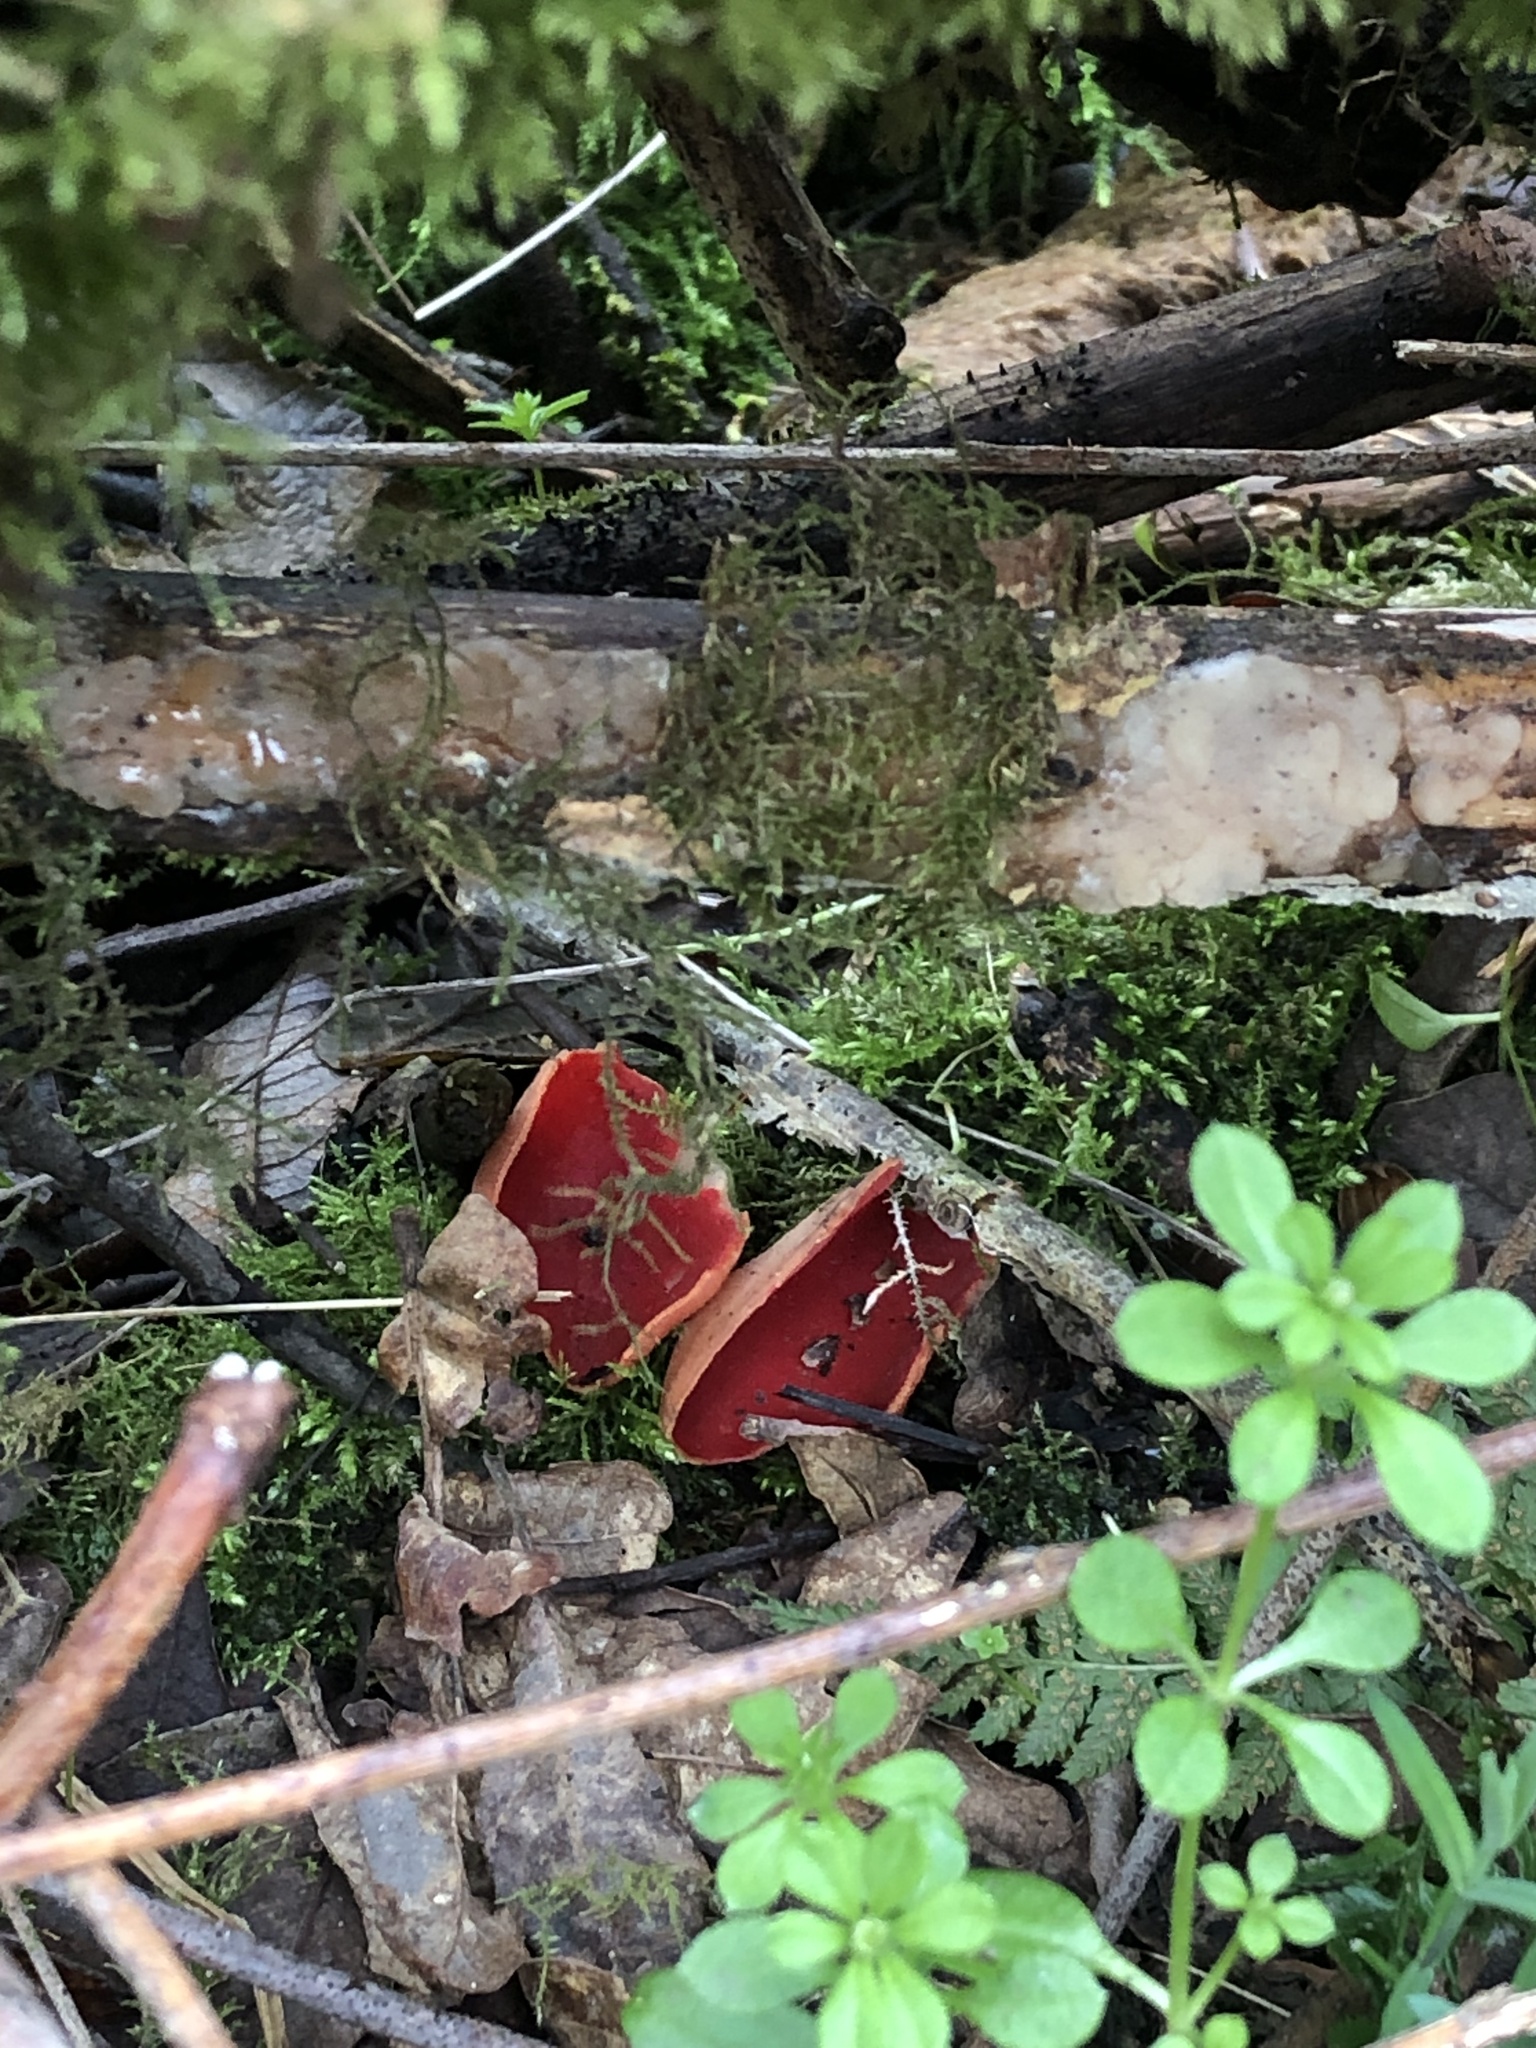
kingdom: Fungi
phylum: Ascomycota
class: Pezizomycetes
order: Pezizales
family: Sarcoscyphaceae
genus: Sarcoscypha
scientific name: Sarcoscypha
